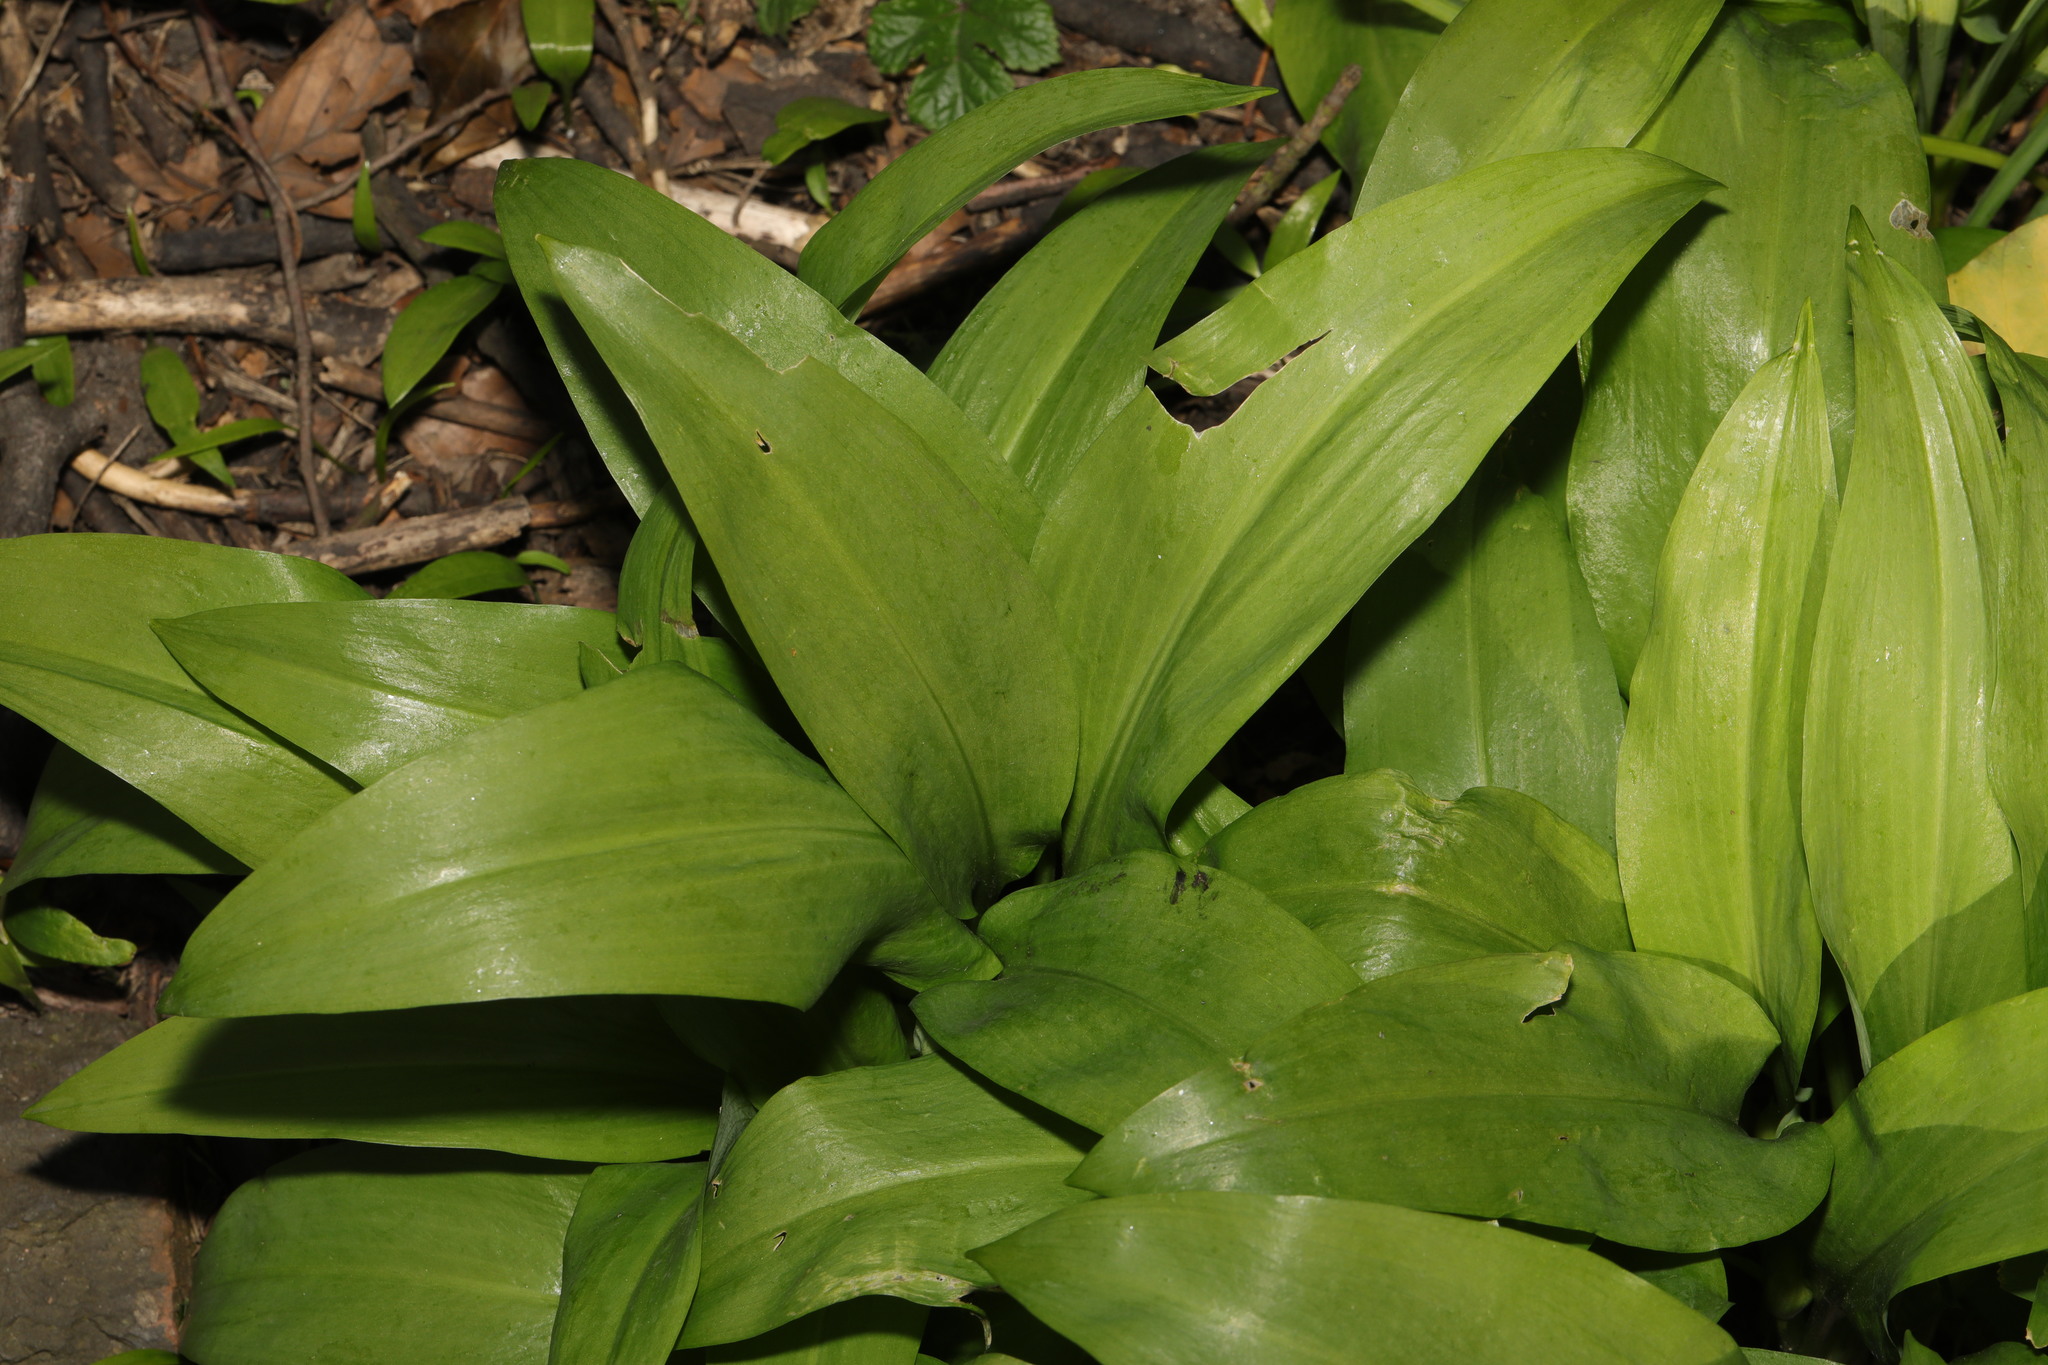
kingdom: Plantae
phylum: Tracheophyta
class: Liliopsida
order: Asparagales
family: Amaryllidaceae
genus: Allium
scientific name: Allium ursinum
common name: Ramsons
